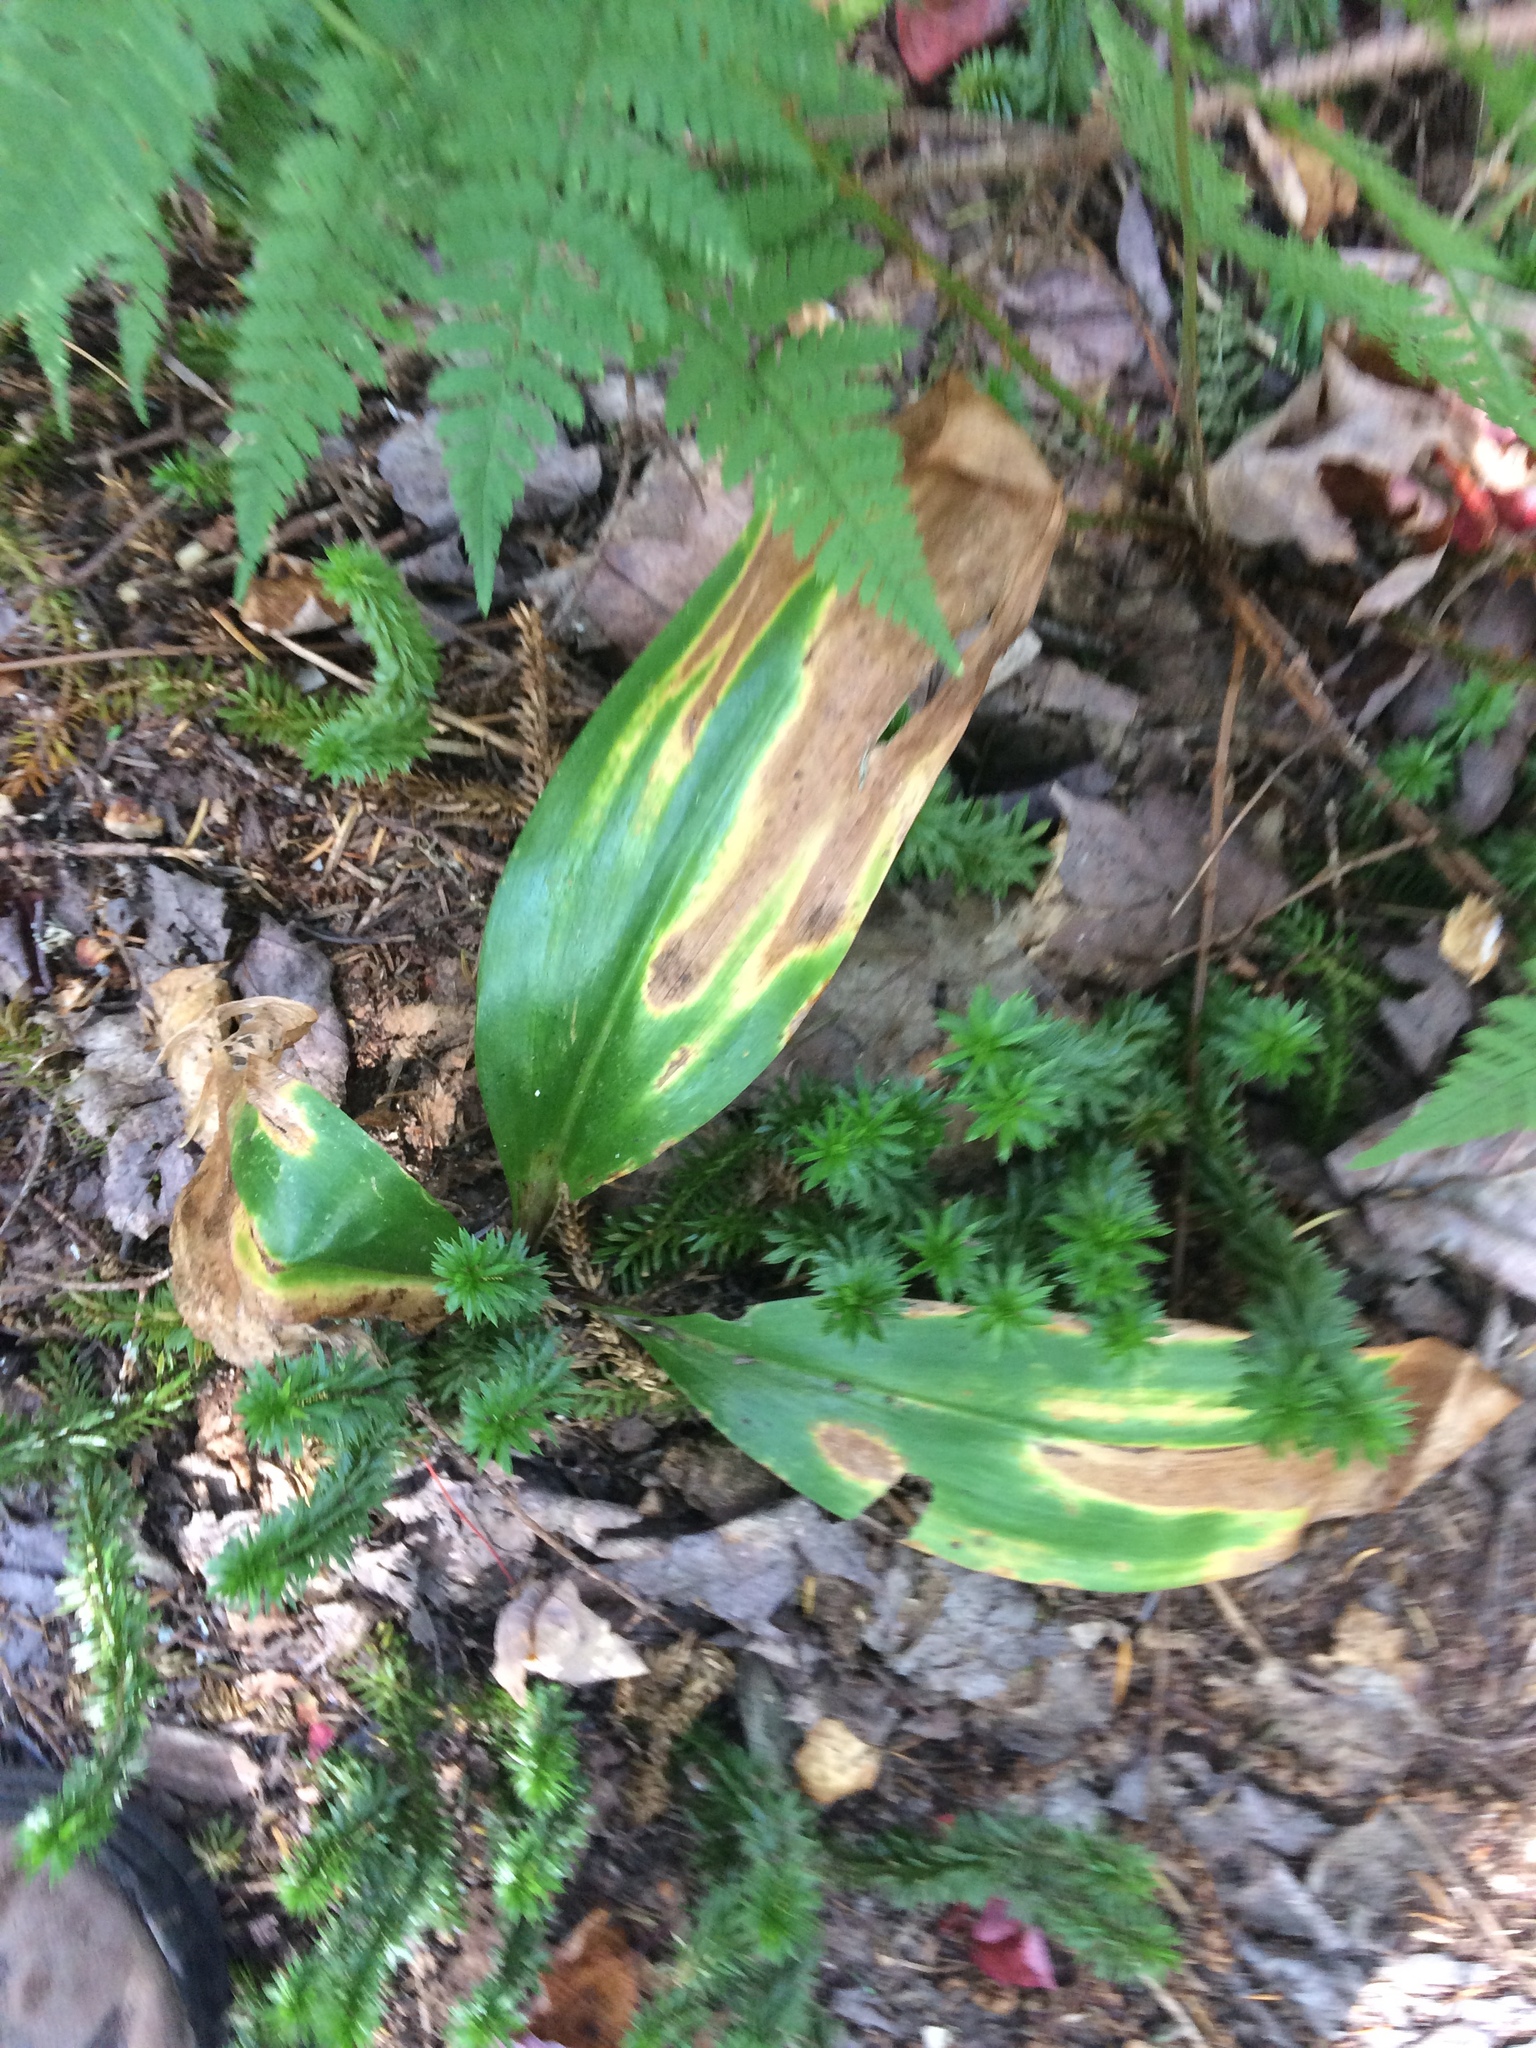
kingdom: Plantae
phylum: Tracheophyta
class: Liliopsida
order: Liliales
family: Liliaceae
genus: Clintonia
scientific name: Clintonia borealis
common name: Yellow clintonia
